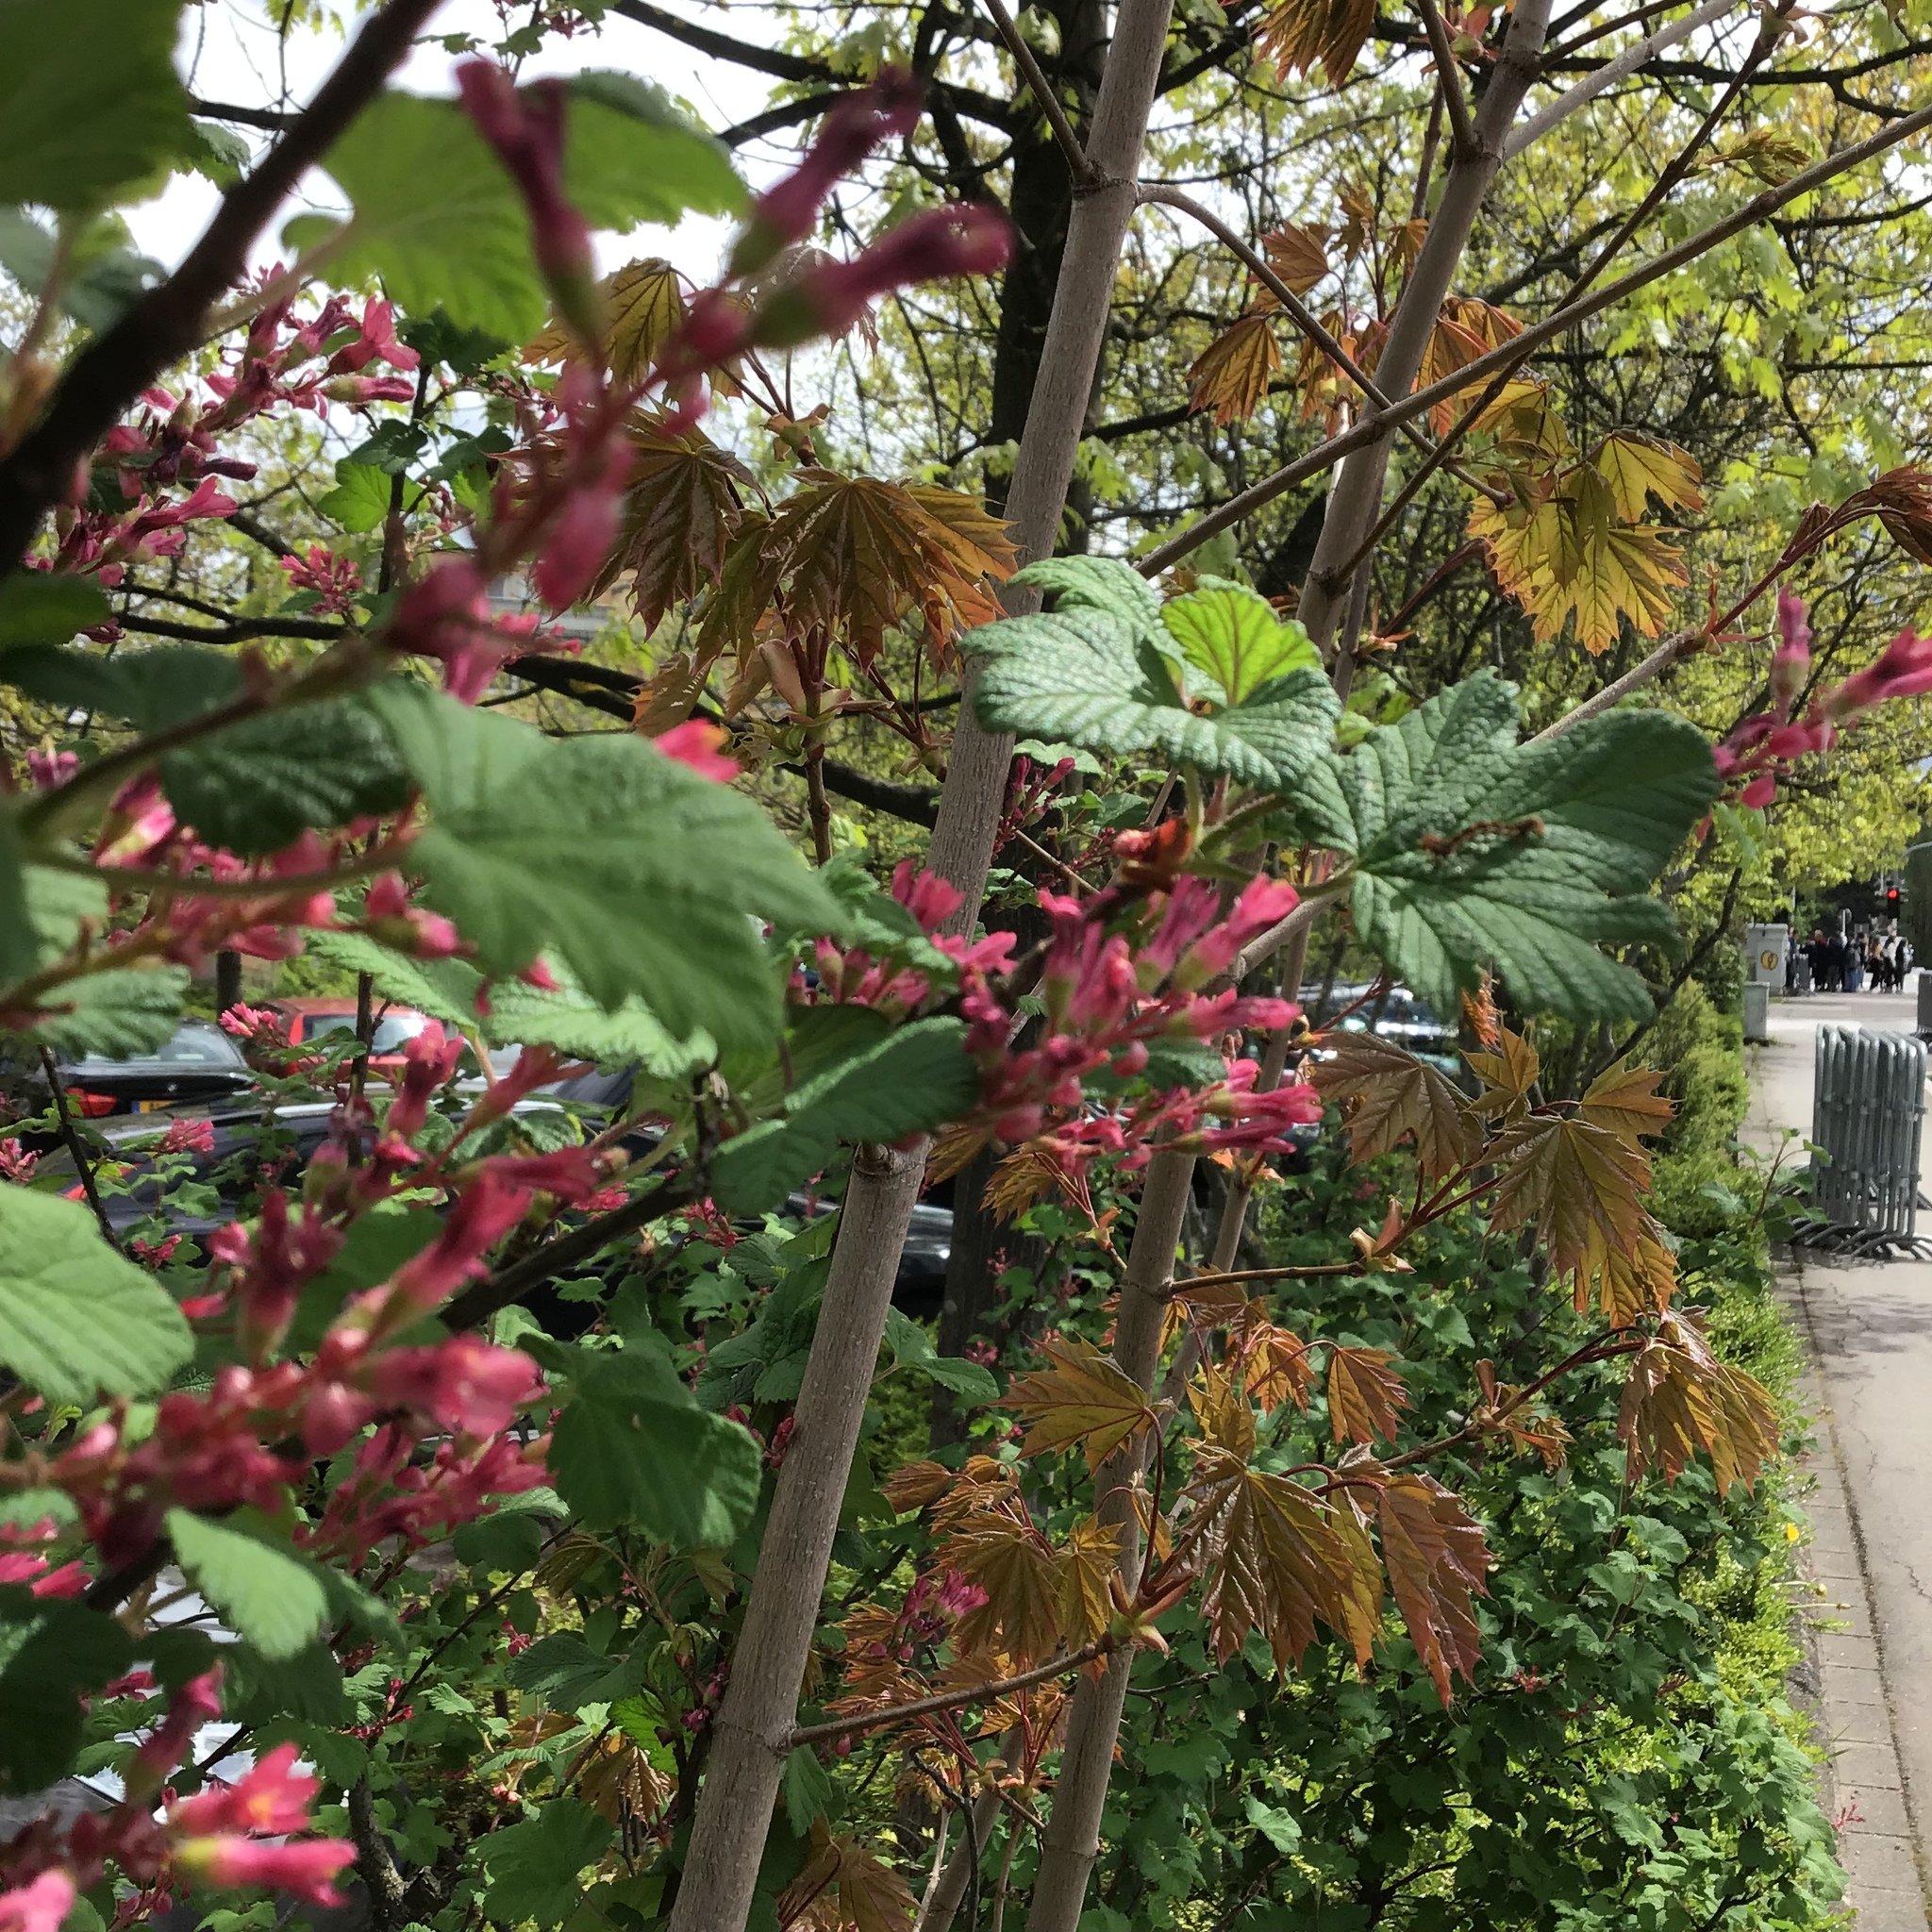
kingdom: Plantae
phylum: Tracheophyta
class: Magnoliopsida
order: Saxifragales
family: Grossulariaceae
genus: Ribes
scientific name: Ribes sanguineum
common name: Flowering currant
